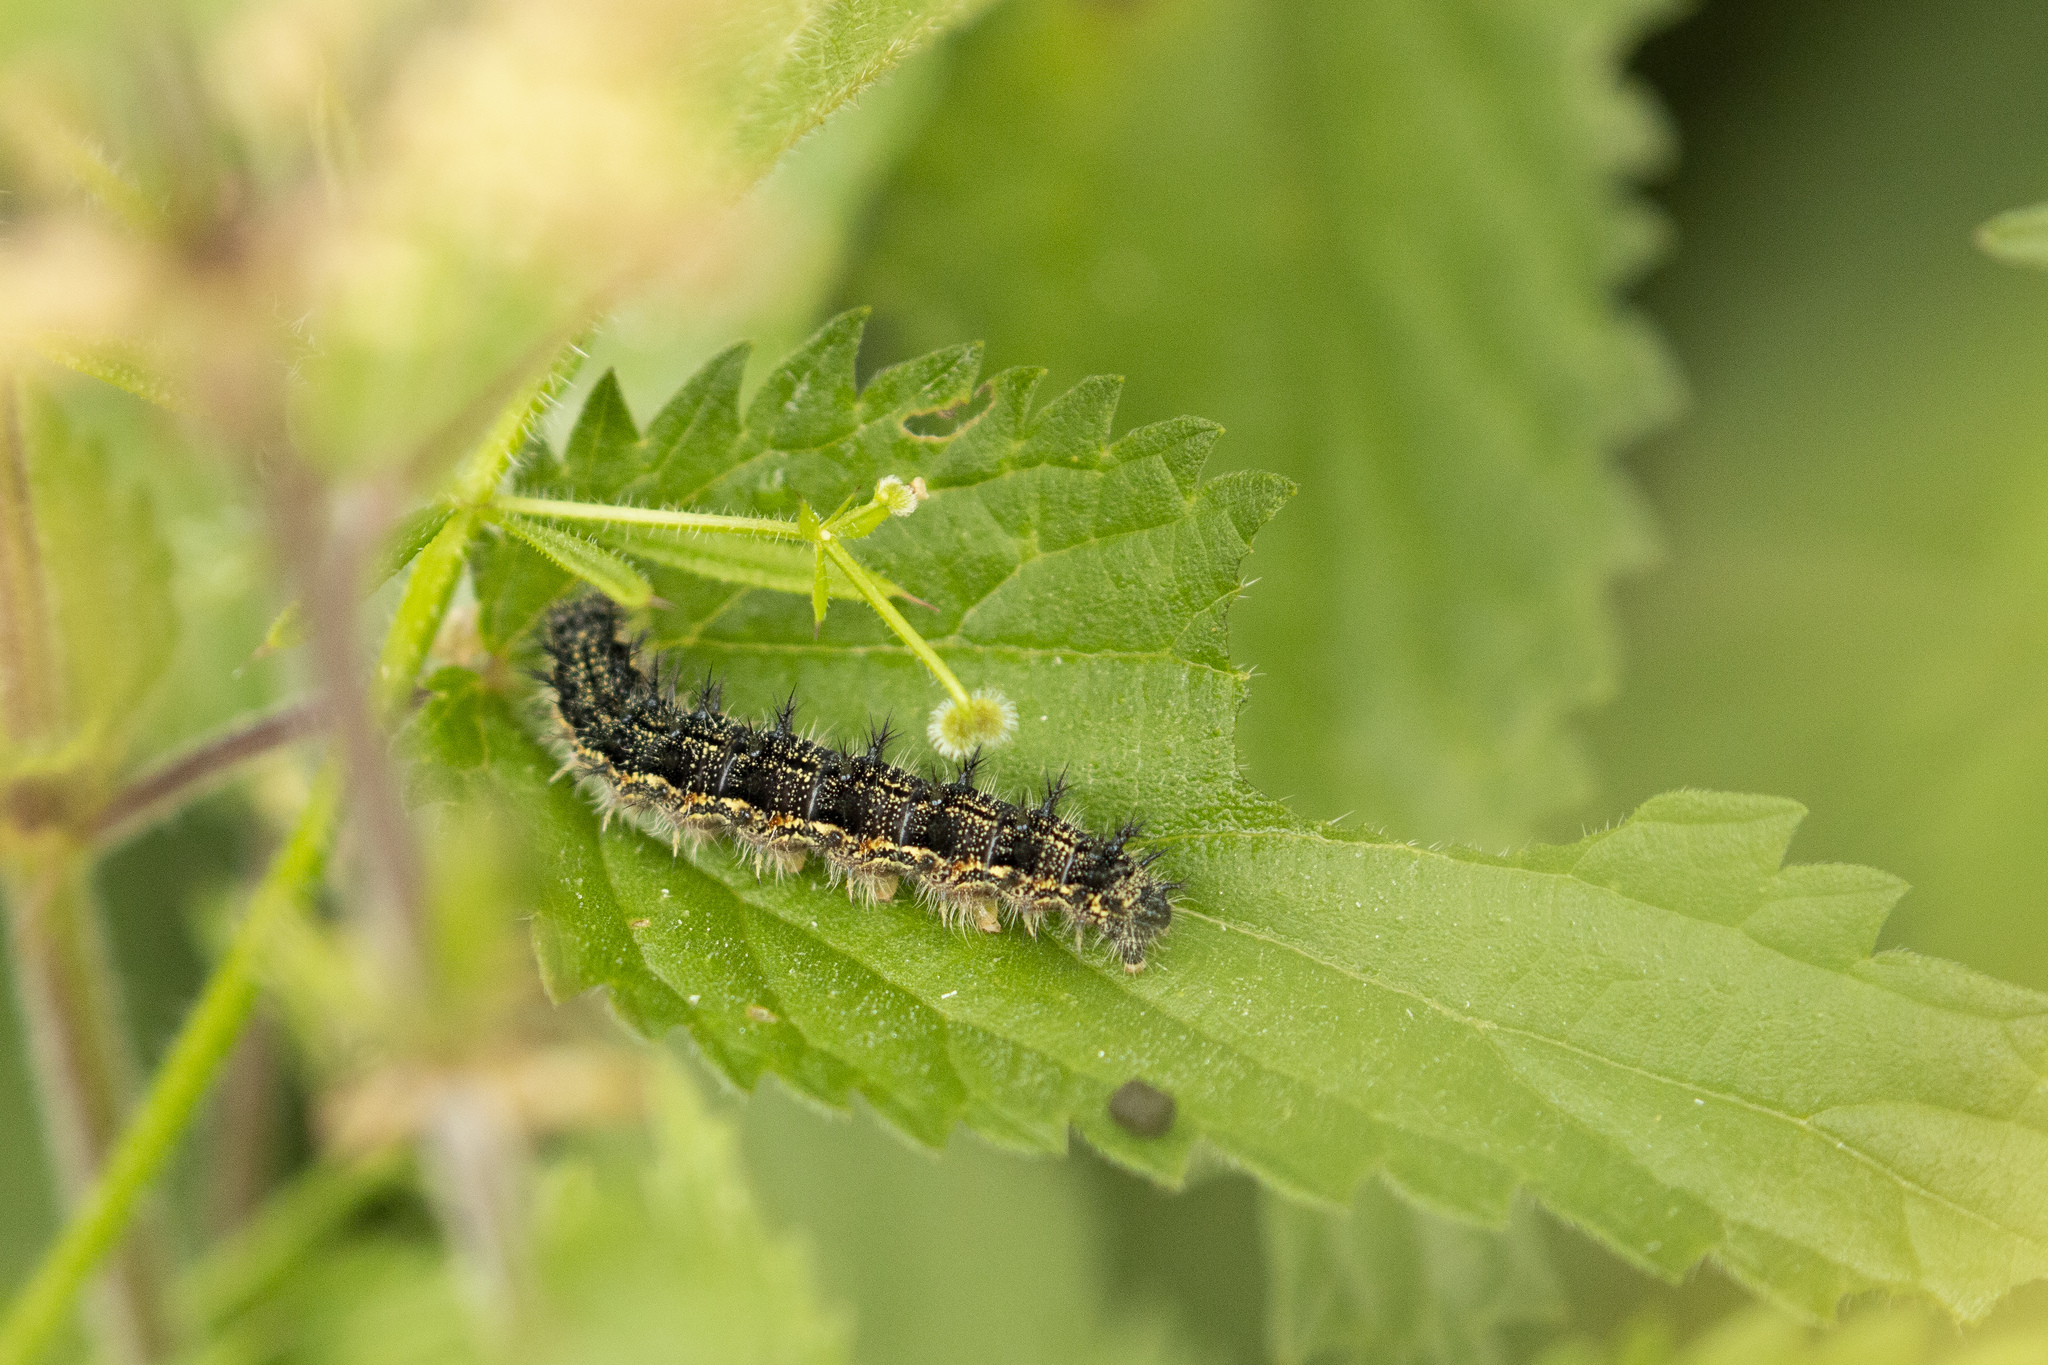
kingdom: Animalia
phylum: Arthropoda
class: Insecta
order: Lepidoptera
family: Nymphalidae
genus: Aglais
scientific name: Aglais urticae
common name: Small tortoiseshell
